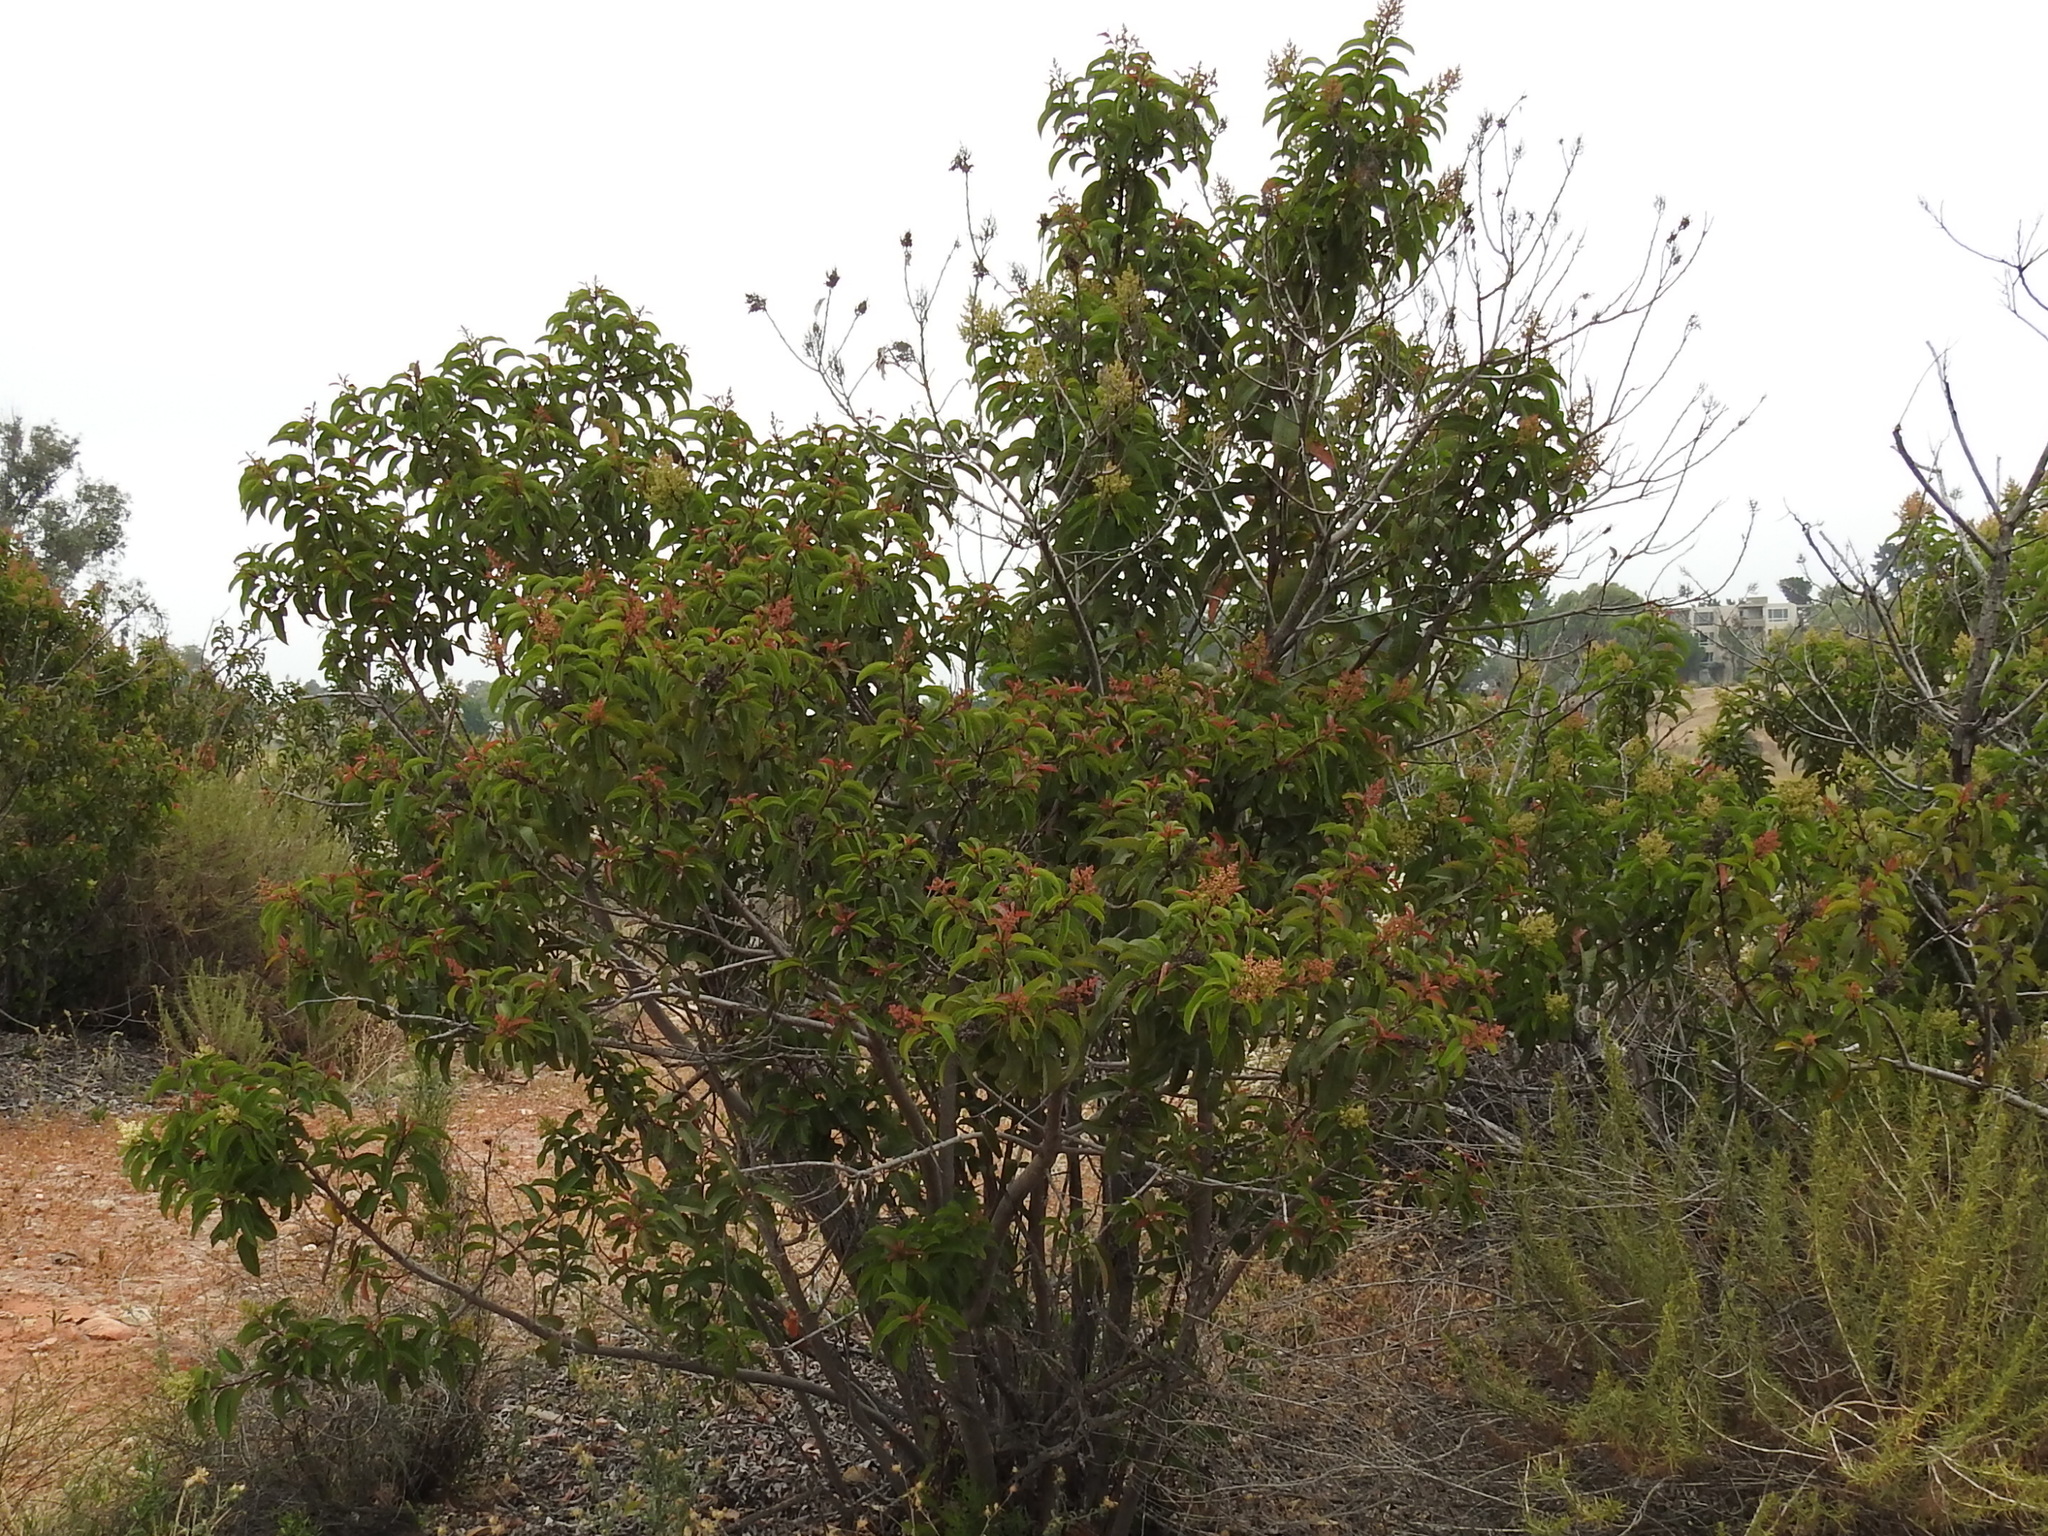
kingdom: Plantae
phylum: Tracheophyta
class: Magnoliopsida
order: Sapindales
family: Anacardiaceae
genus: Malosma
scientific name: Malosma laurina
